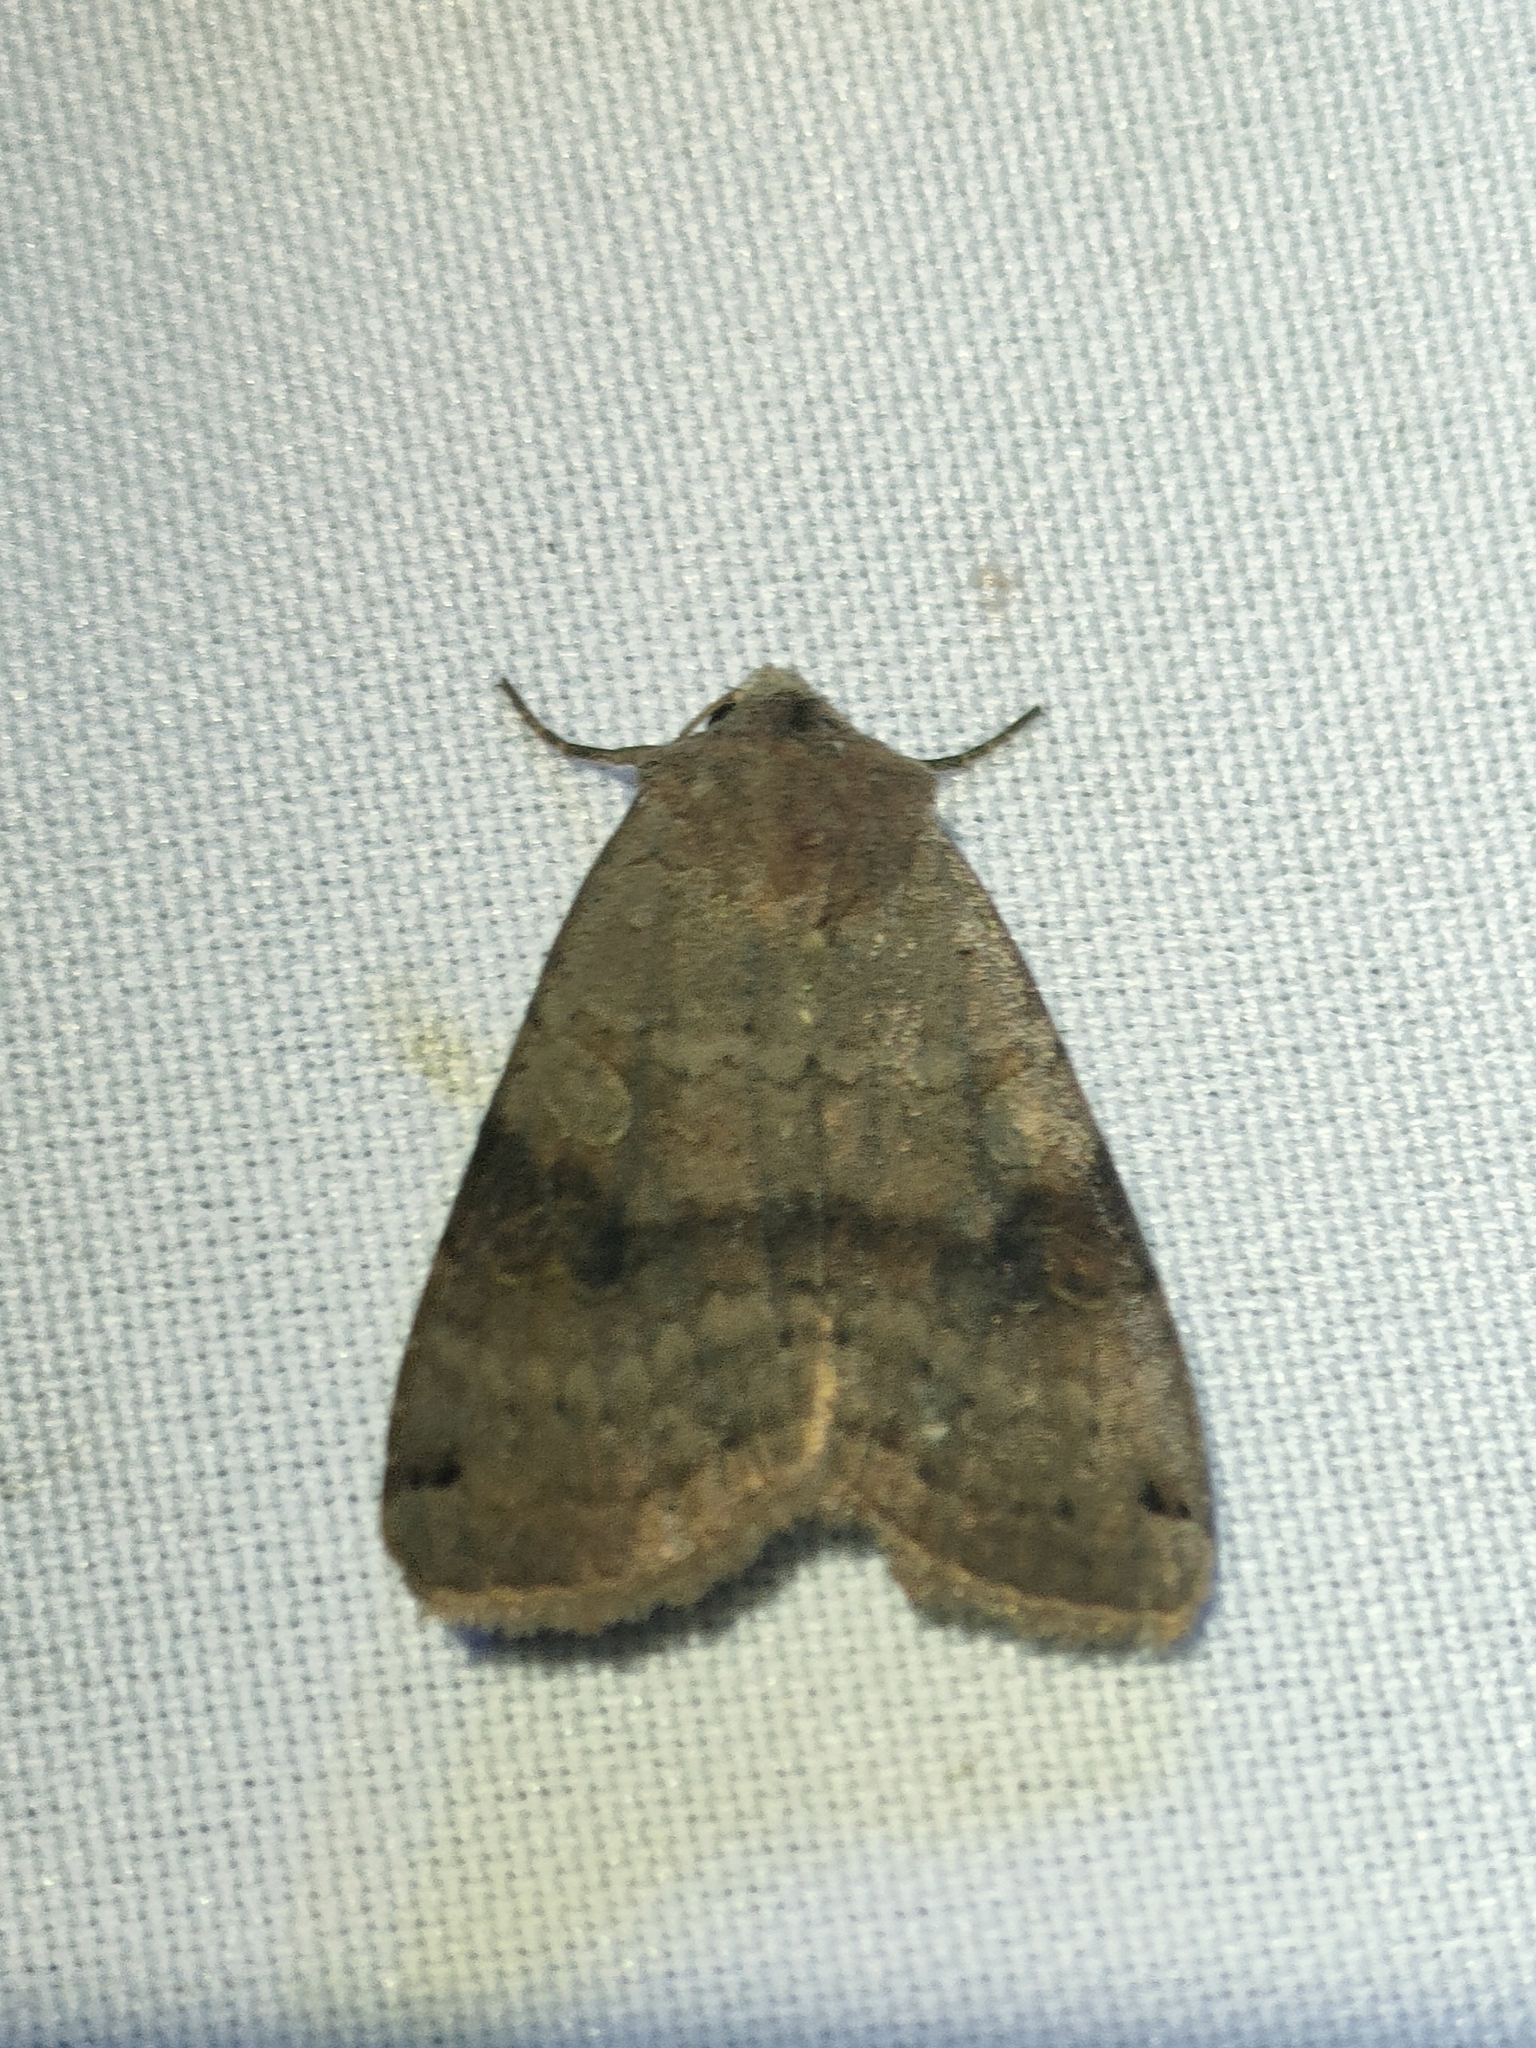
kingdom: Animalia
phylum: Arthropoda
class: Insecta
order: Lepidoptera
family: Noctuidae
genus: Xestia
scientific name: Xestia baja
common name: Dotted clay
